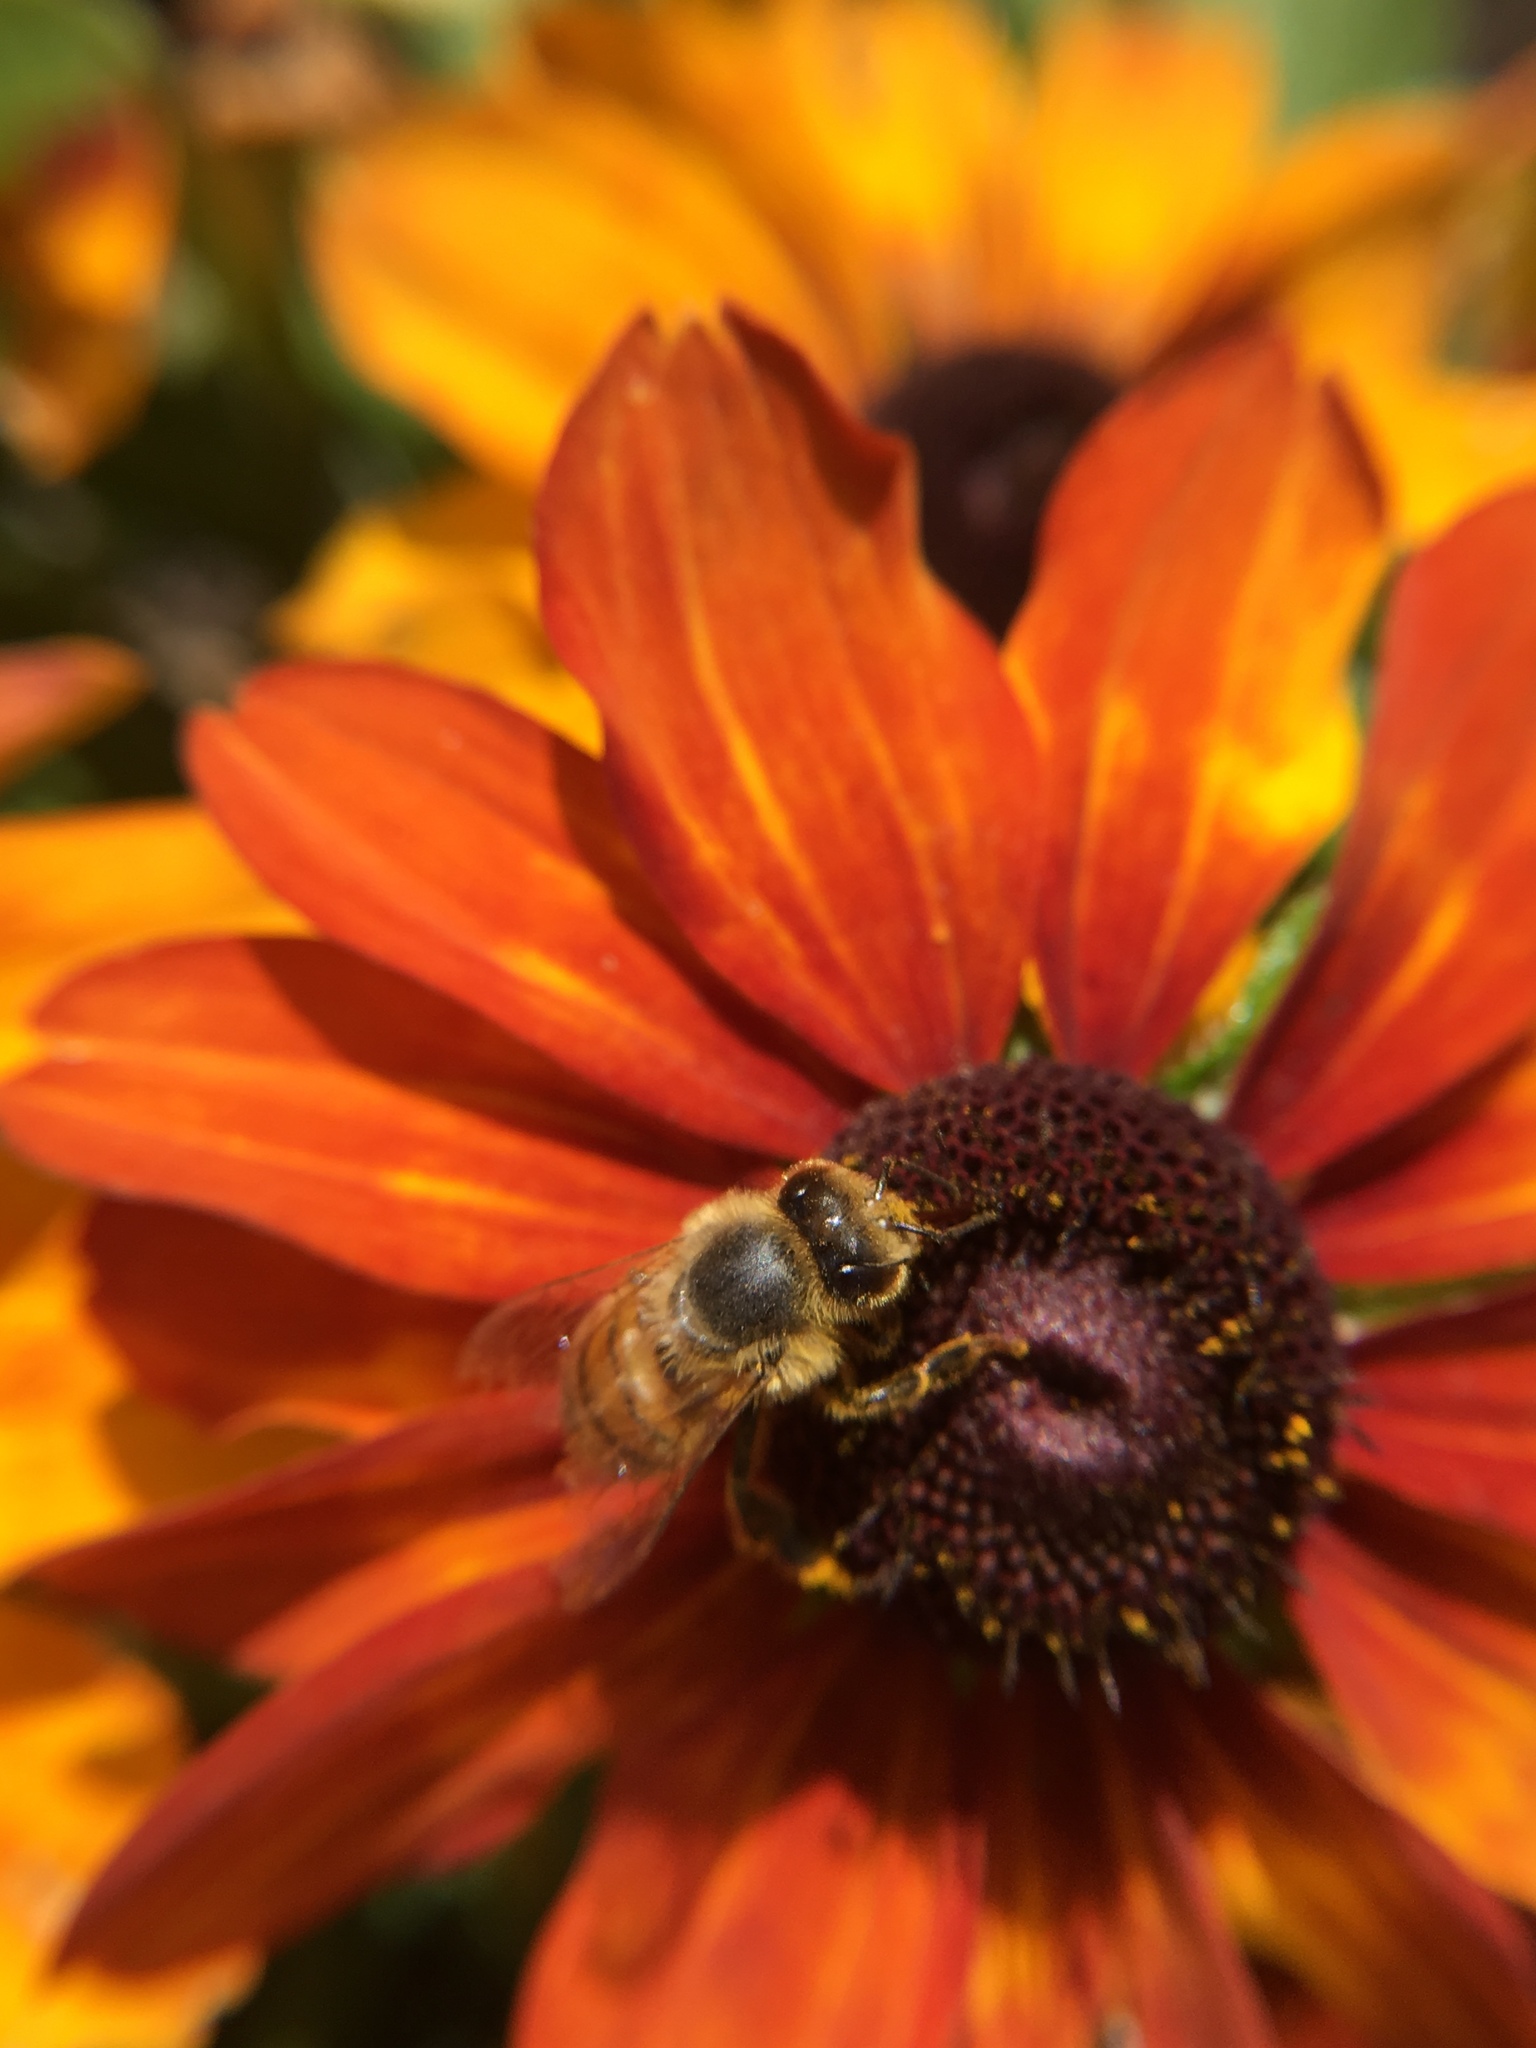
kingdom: Animalia
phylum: Arthropoda
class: Insecta
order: Hymenoptera
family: Apidae
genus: Apis
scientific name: Apis mellifera
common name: Honey bee
